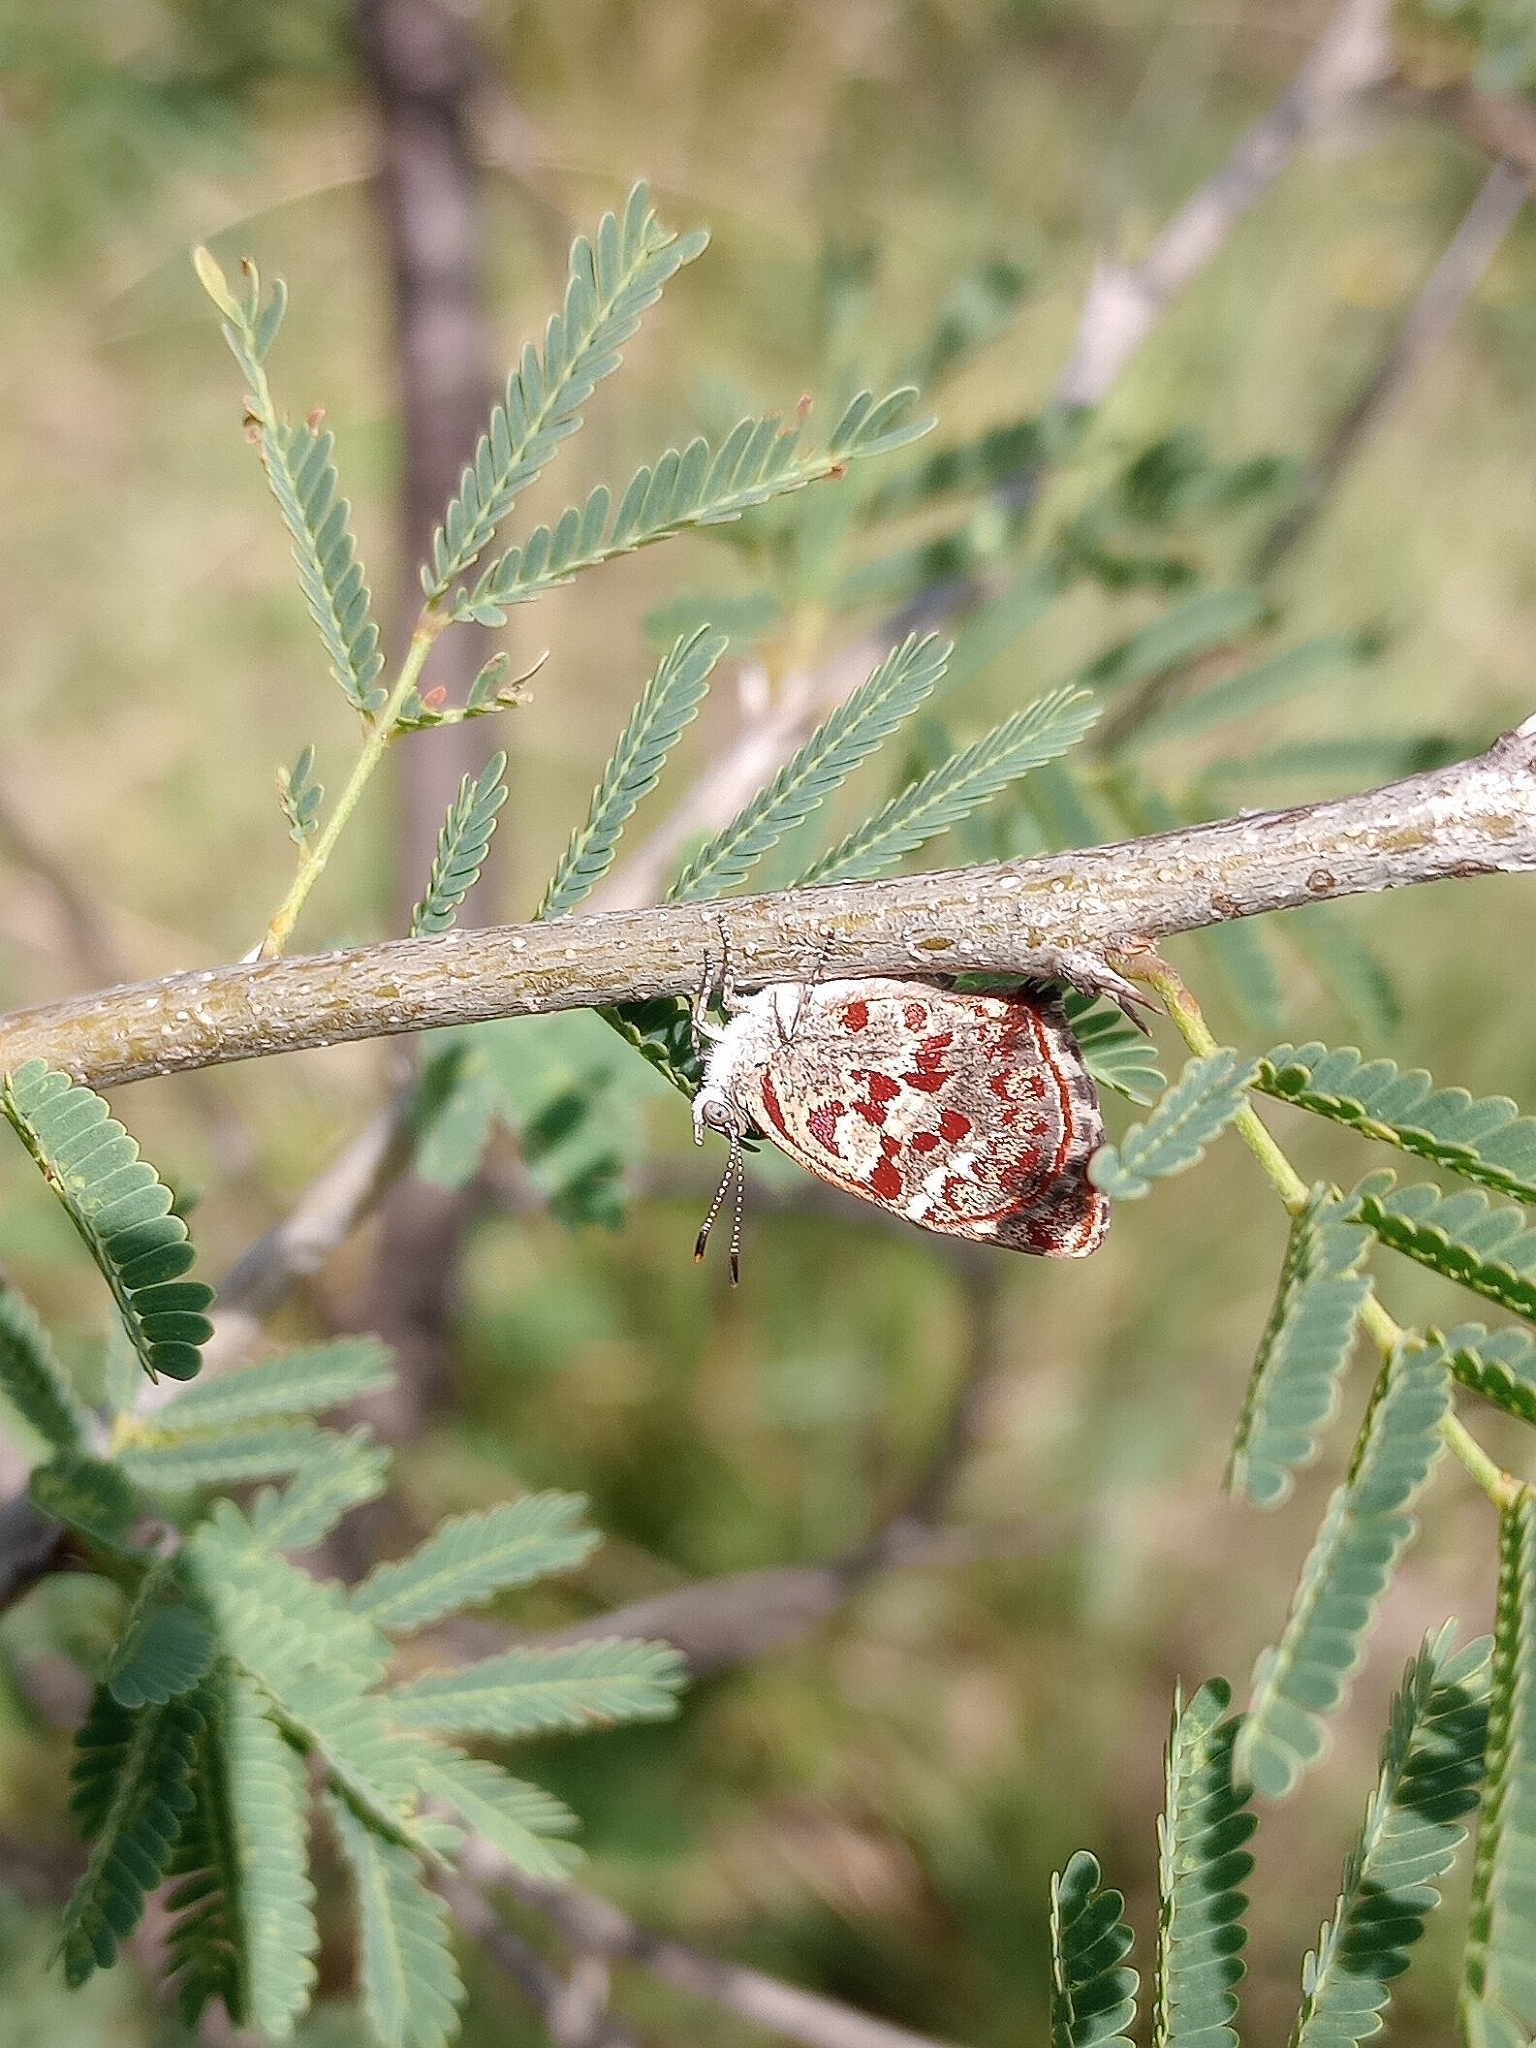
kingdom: Animalia
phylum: Arthropoda
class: Insecta
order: Lepidoptera
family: Lycaenidae
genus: Ministrymon
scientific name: Ministrymon
